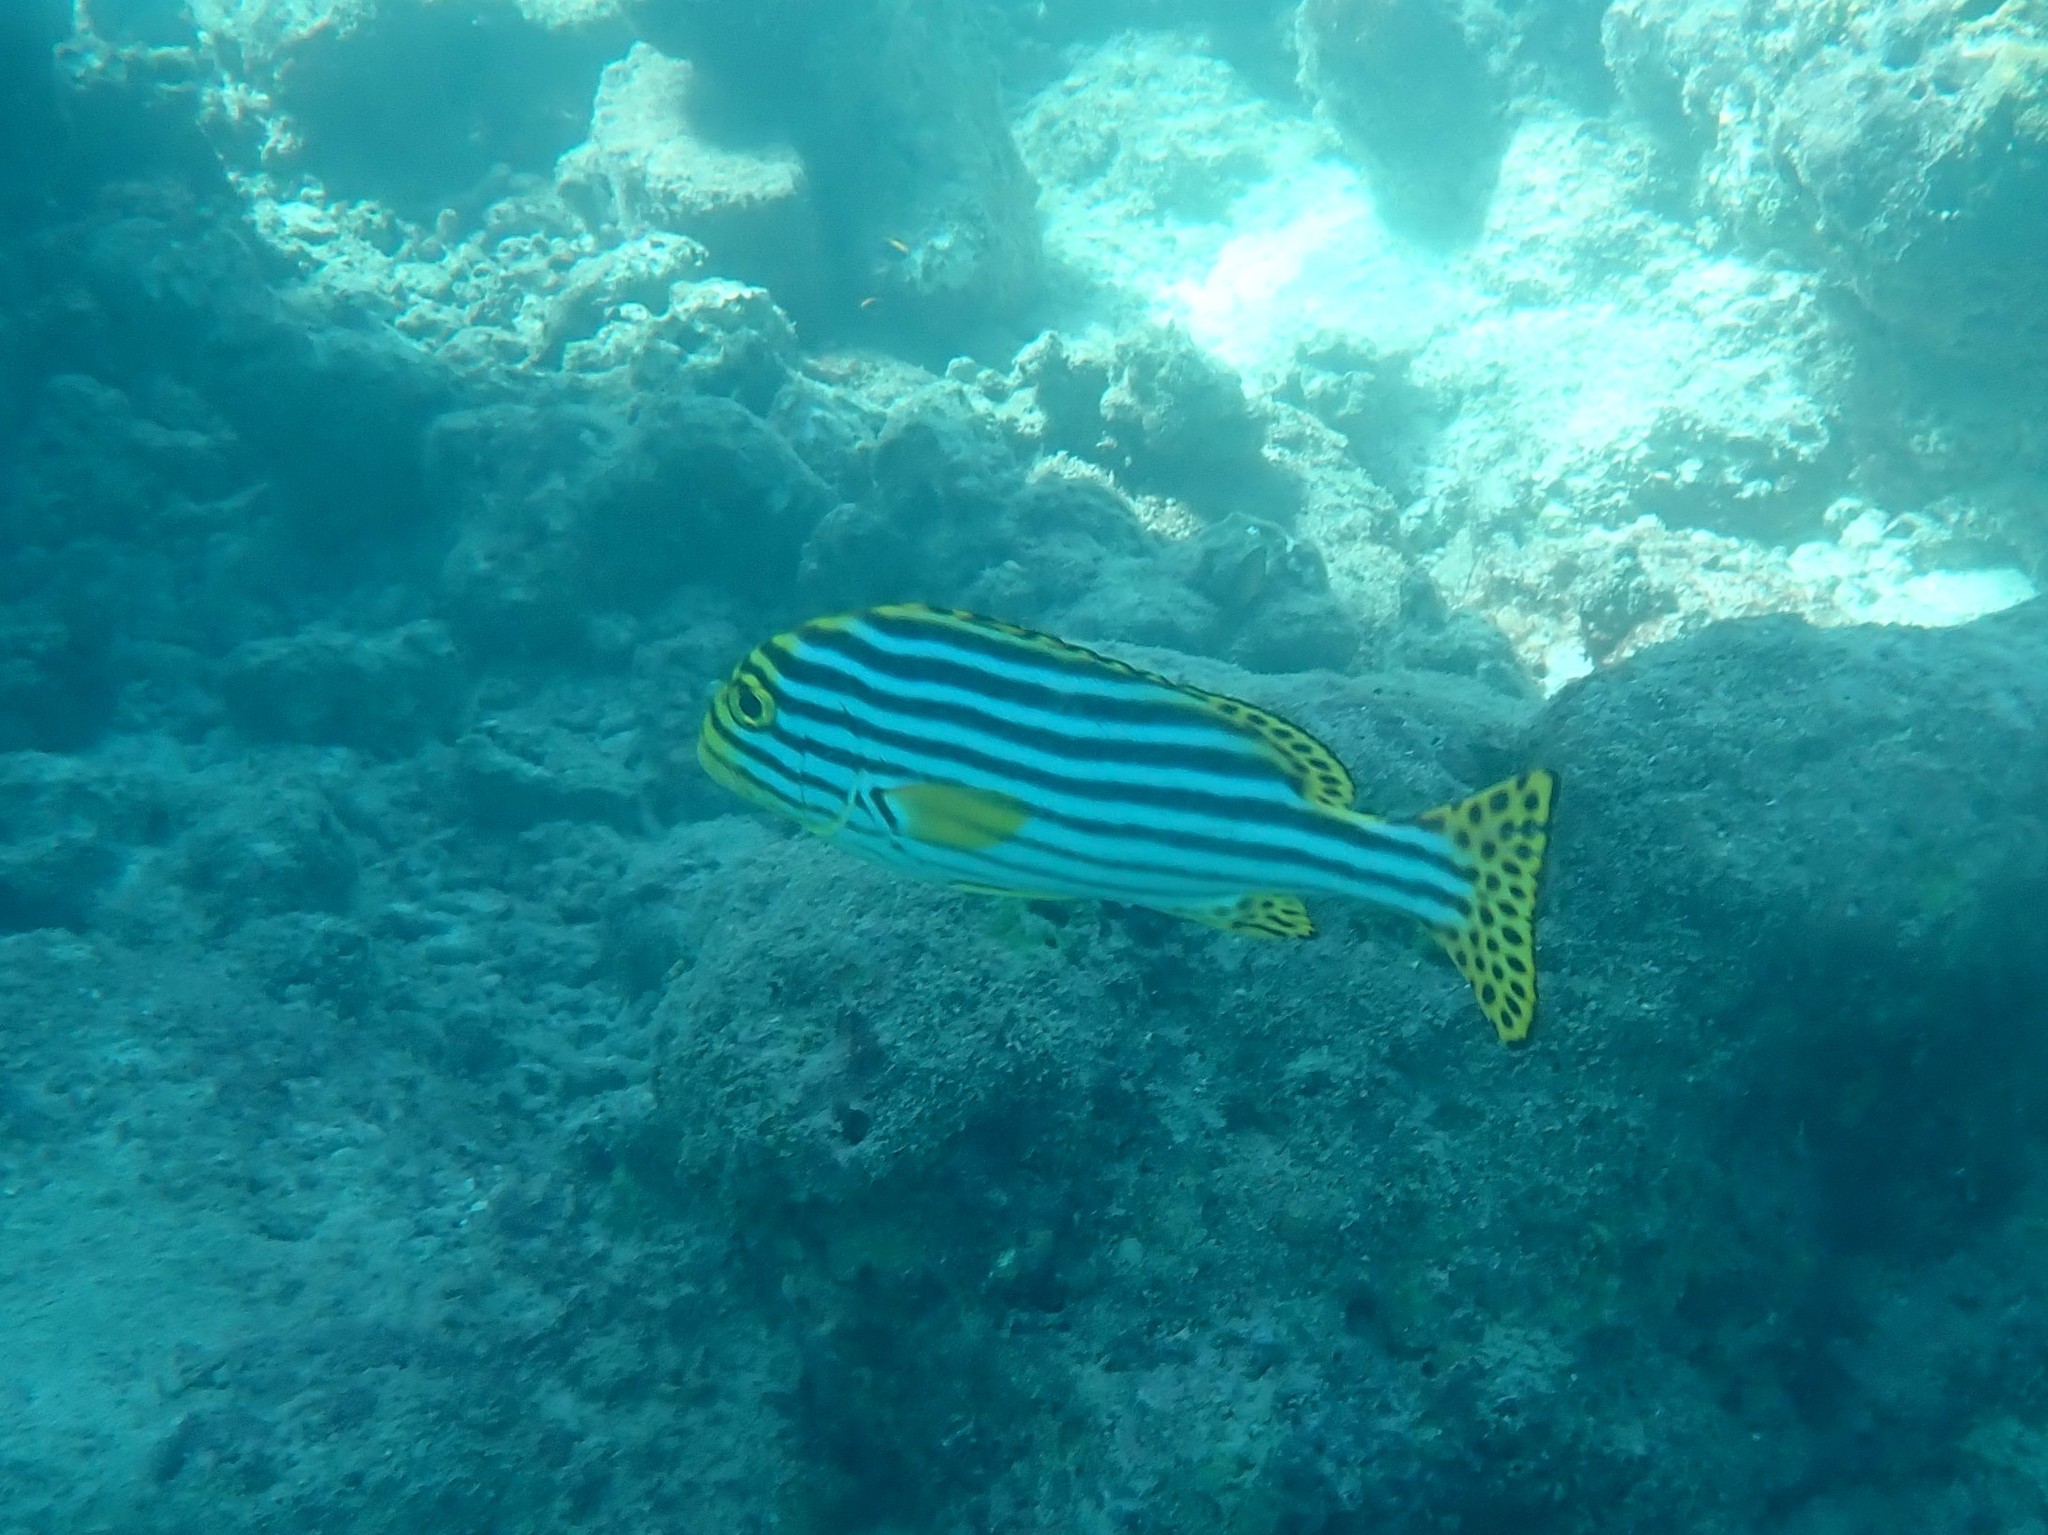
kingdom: Animalia
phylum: Chordata
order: Perciformes
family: Haemulidae
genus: Plectorhinchus
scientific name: Plectorhinchus vittatus
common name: Oriental sweetlips
